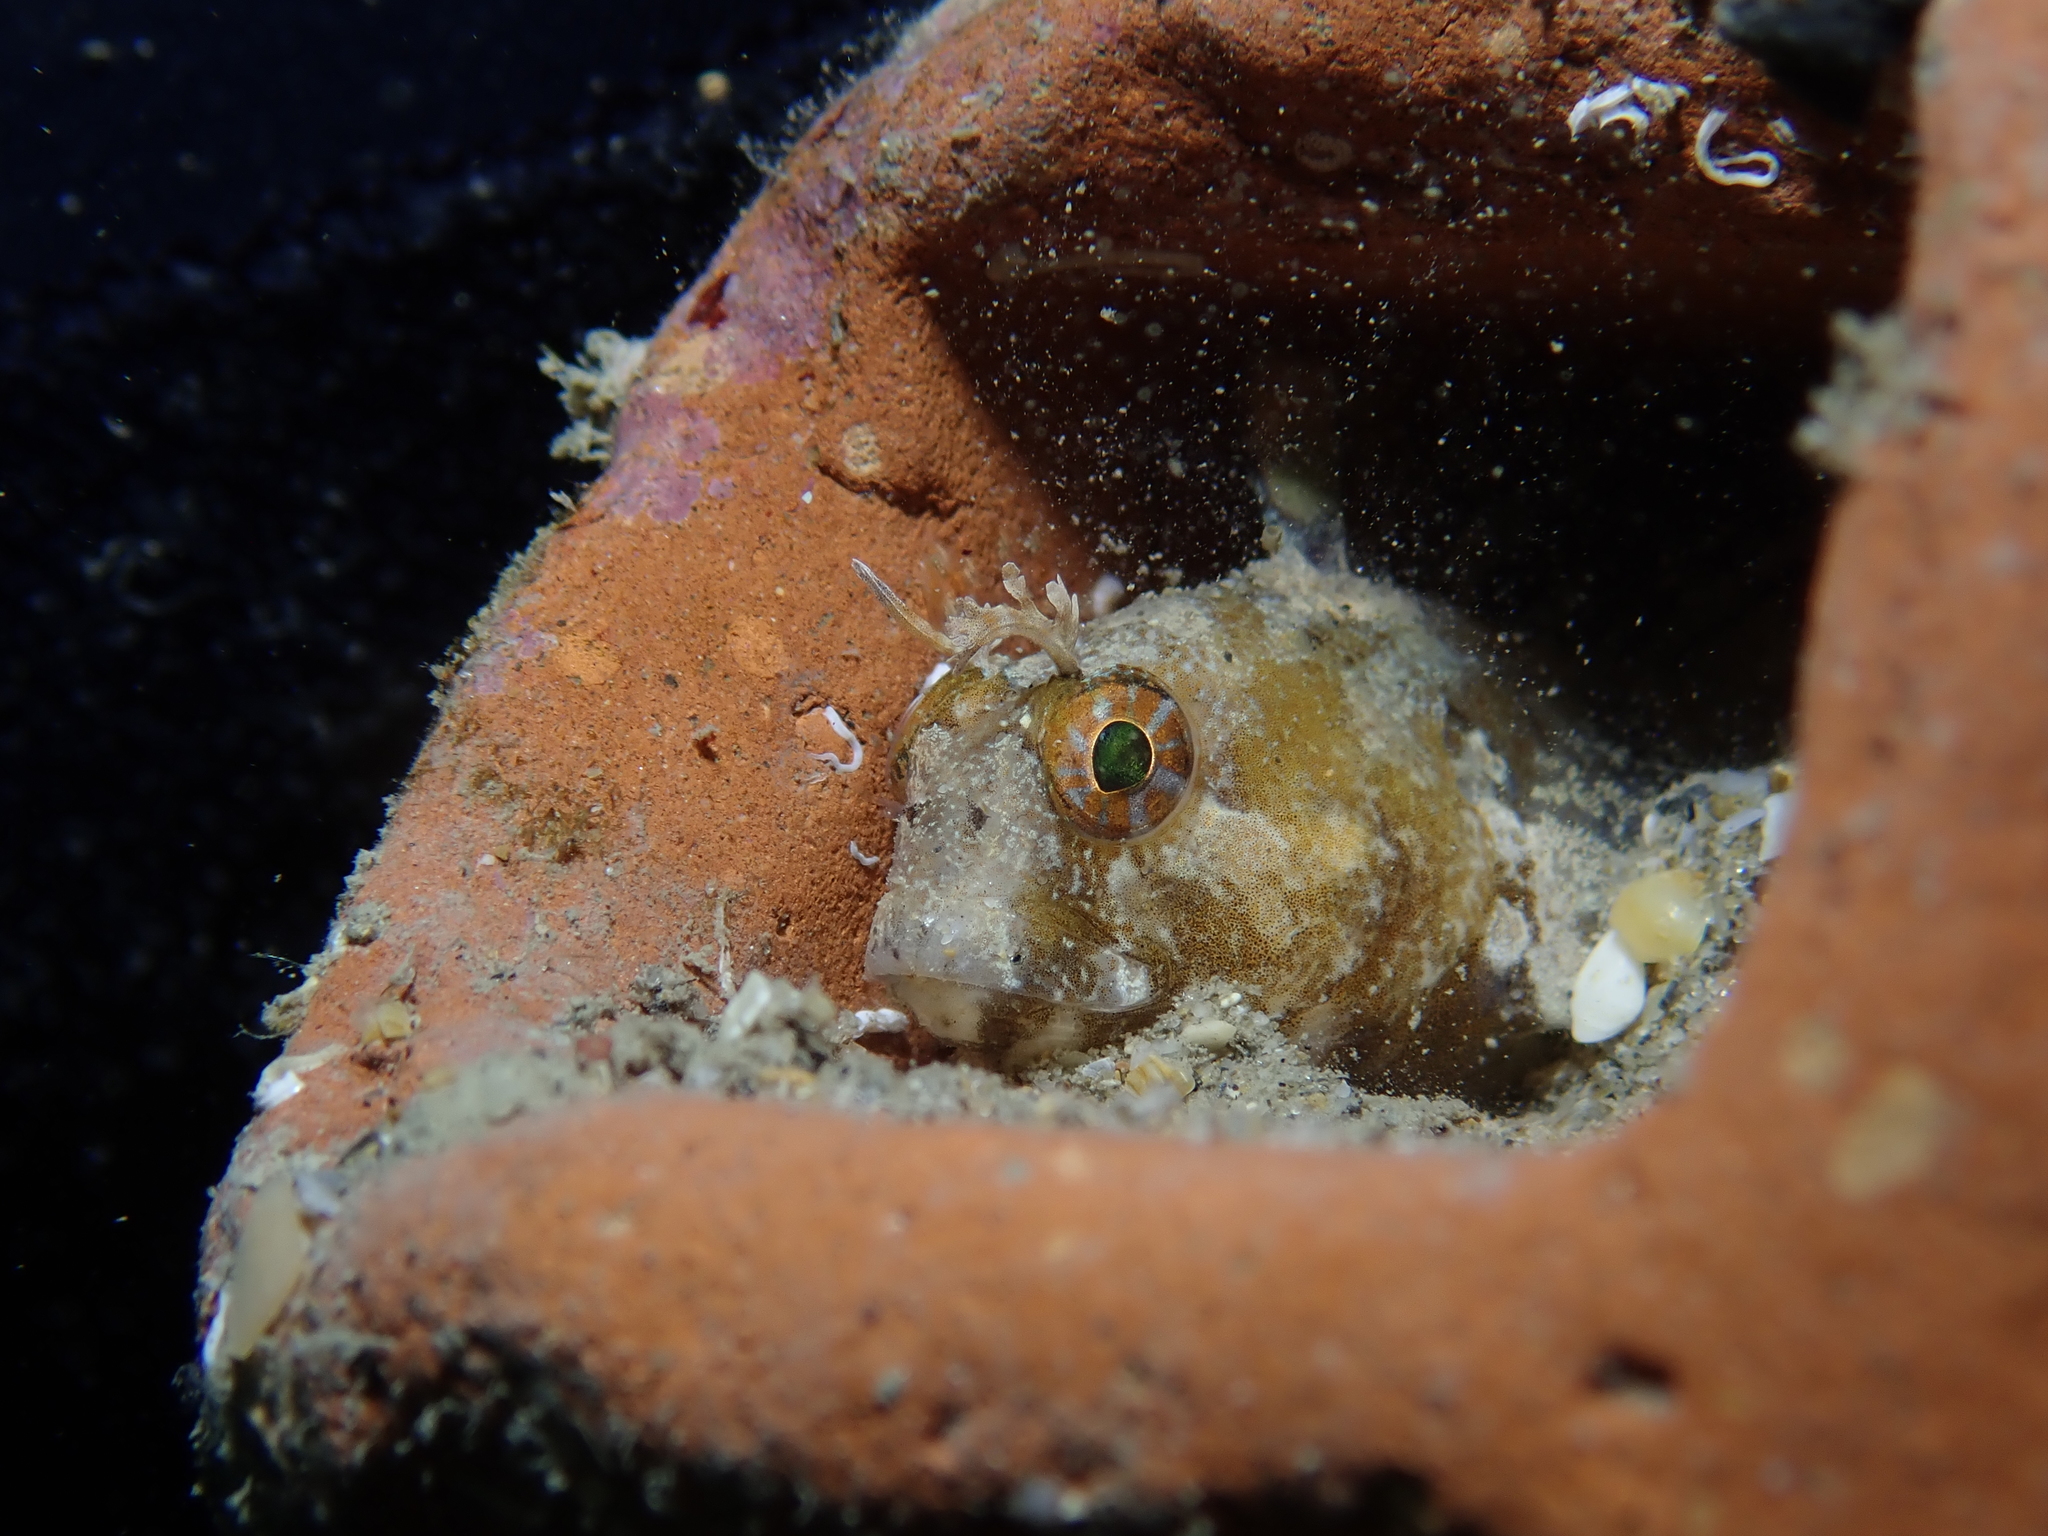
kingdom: Animalia
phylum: Chordata
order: Perciformes
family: Blenniidae
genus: Parablennius
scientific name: Parablennius tentacularis
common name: Tentacled blenny
